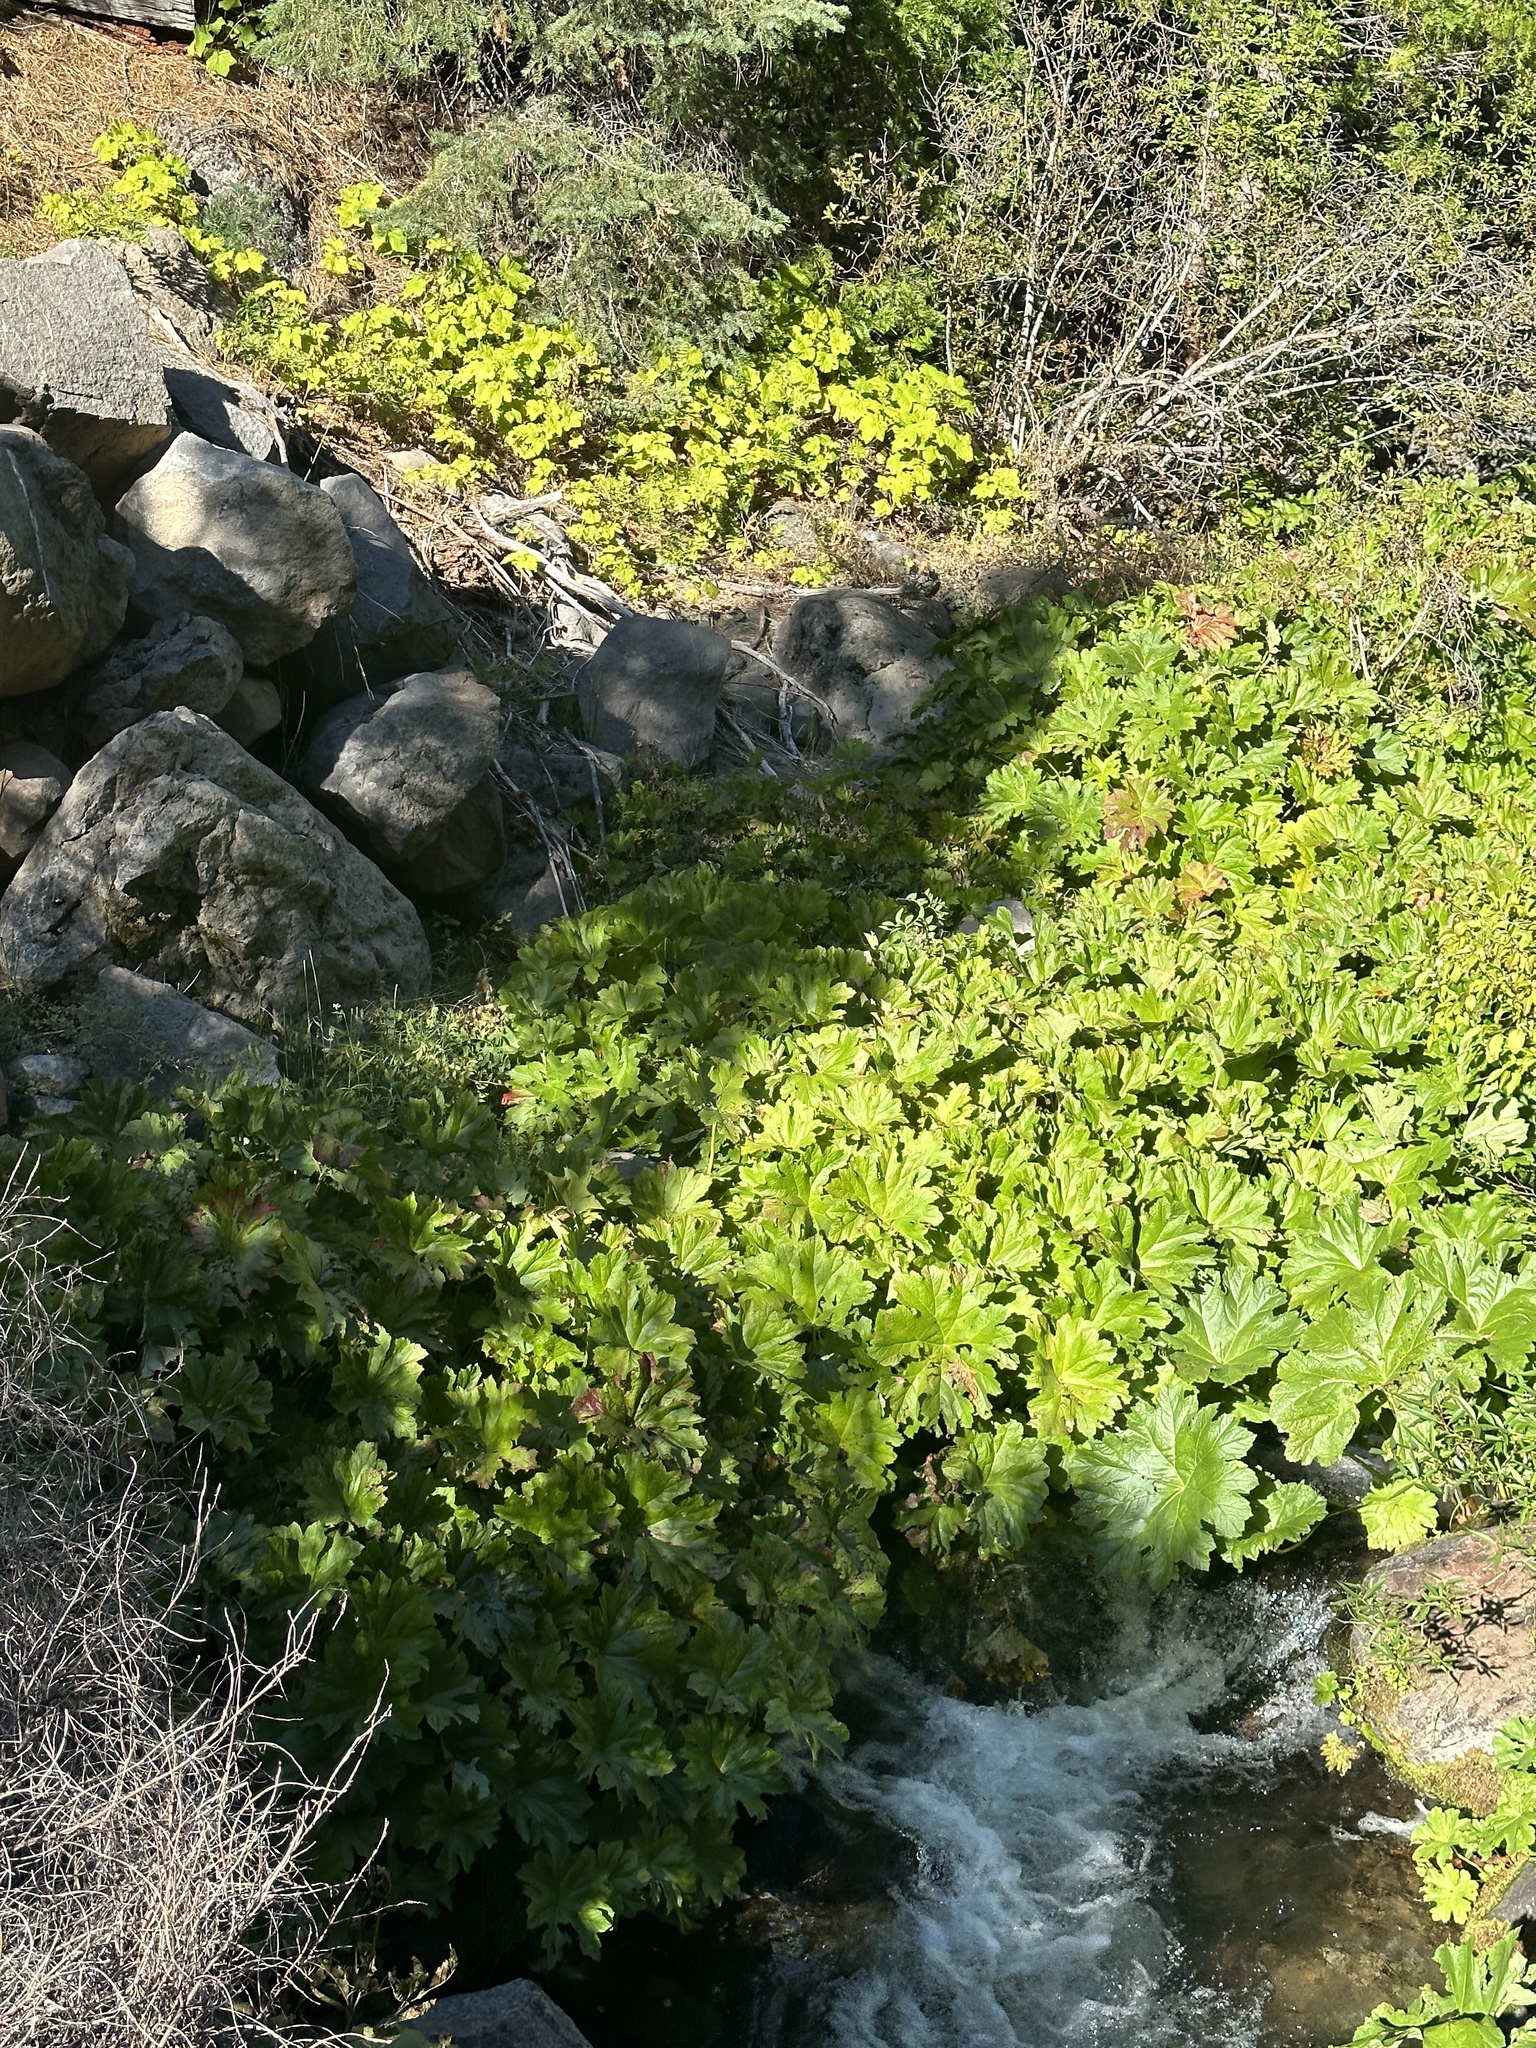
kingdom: Plantae
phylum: Tracheophyta
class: Magnoliopsida
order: Saxifragales
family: Saxifragaceae
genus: Darmera
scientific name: Darmera peltata
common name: Indian-rhubarb
